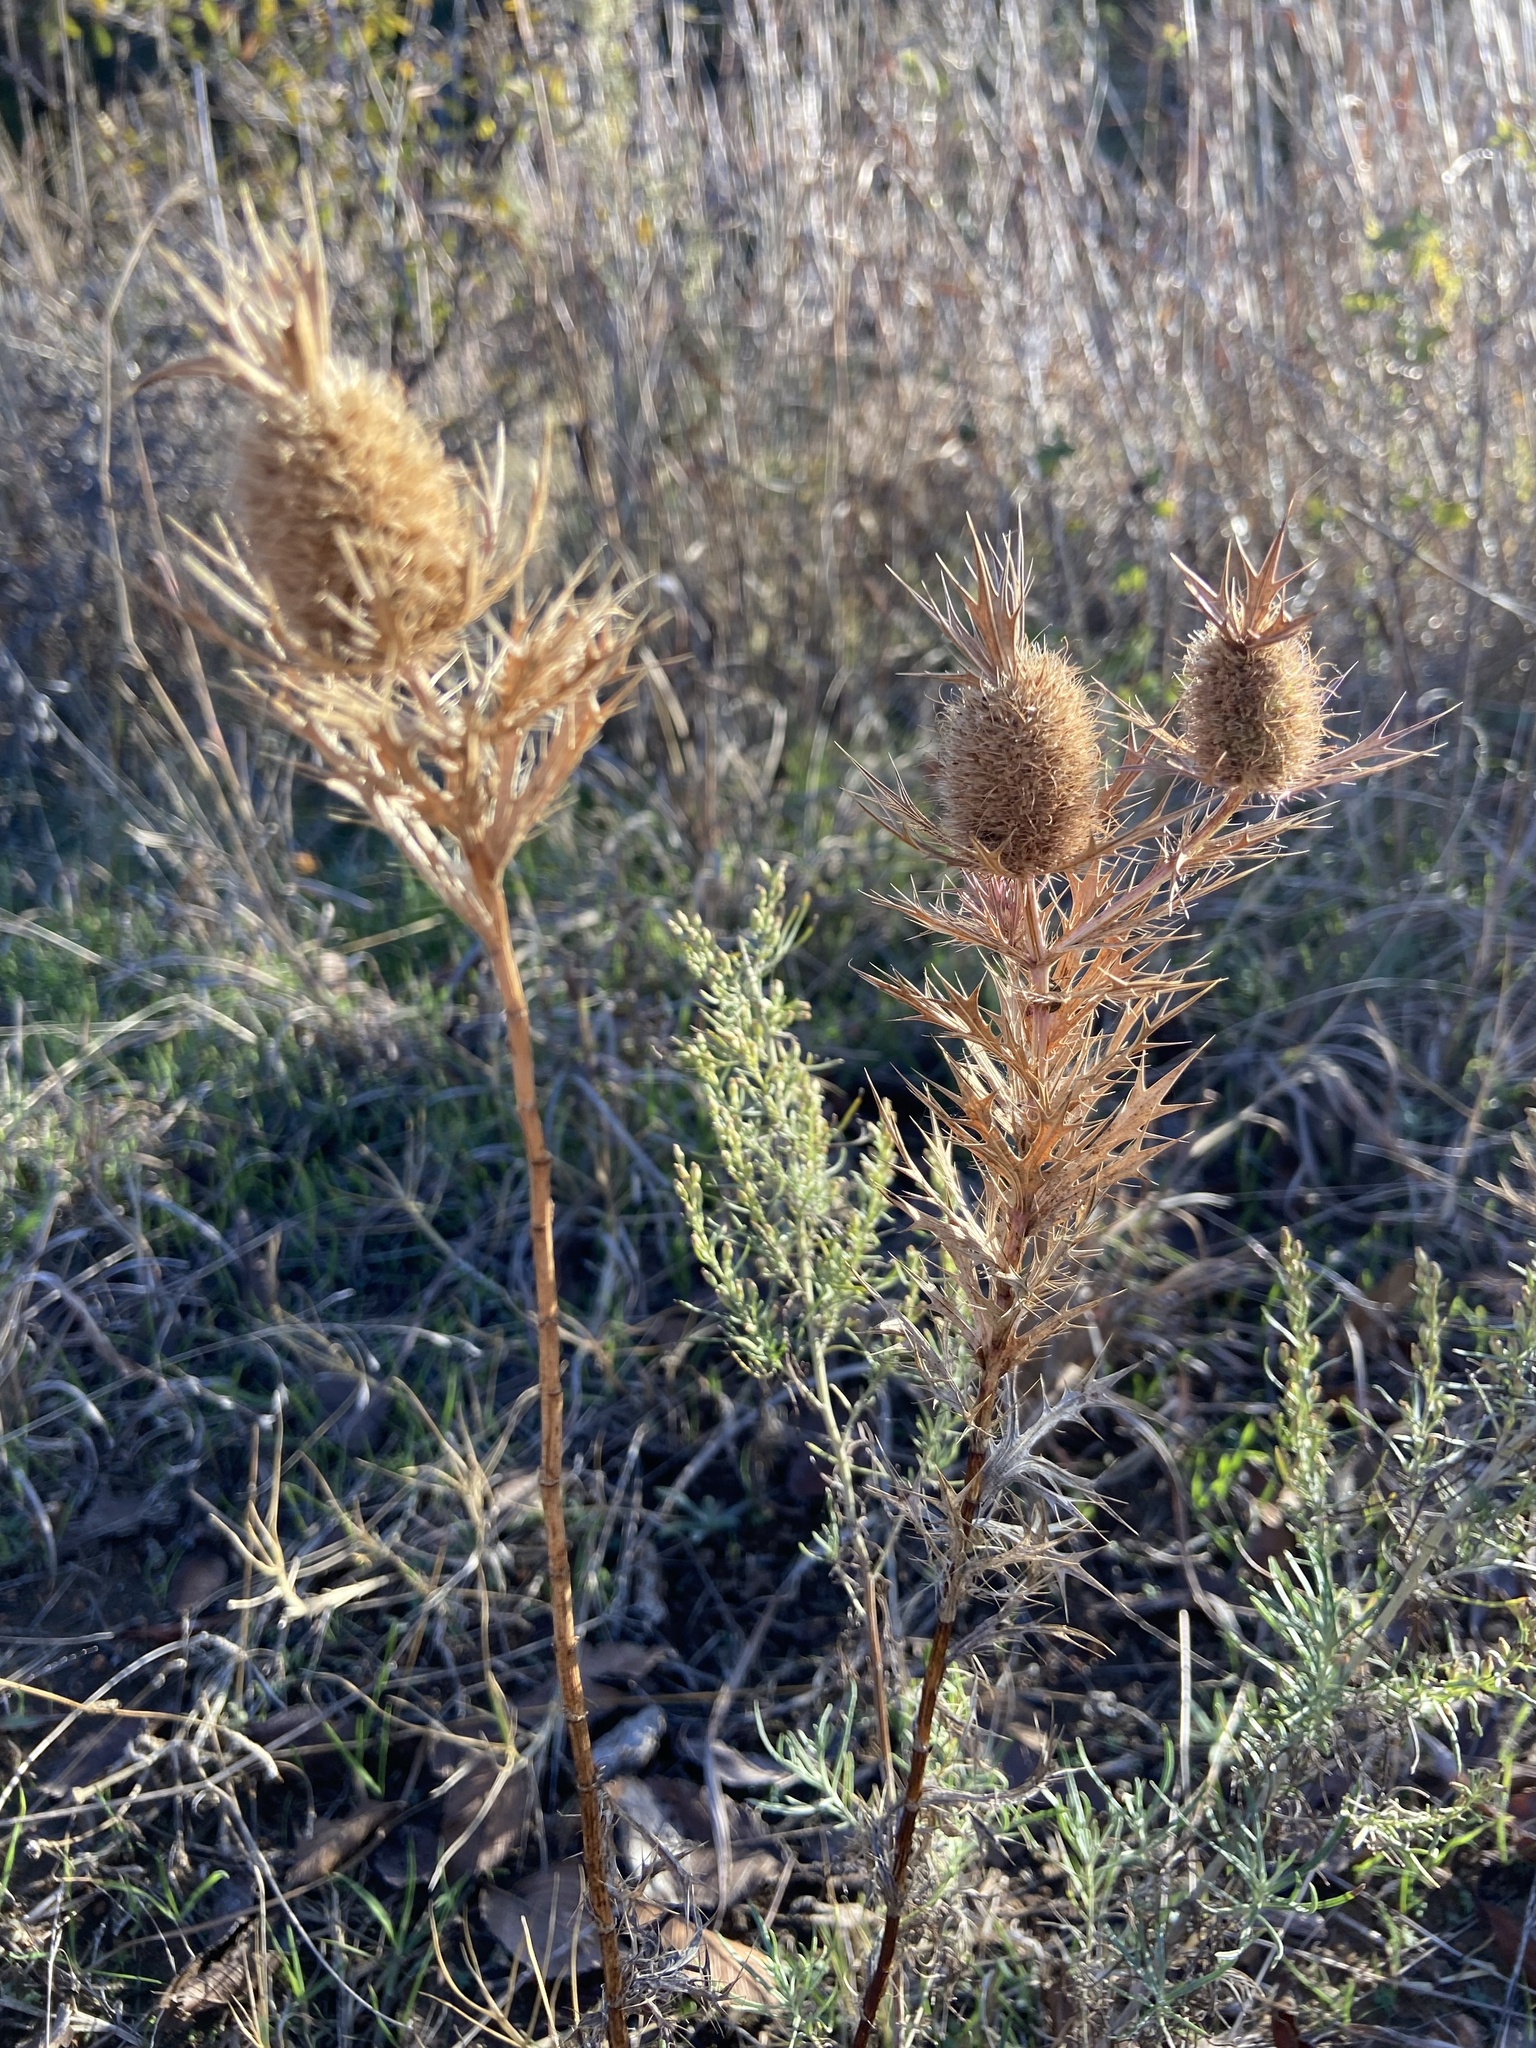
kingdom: Plantae
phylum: Tracheophyta
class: Magnoliopsida
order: Apiales
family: Apiaceae
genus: Eryngium
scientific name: Eryngium leavenworthii
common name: Leavenworth's eryngo
